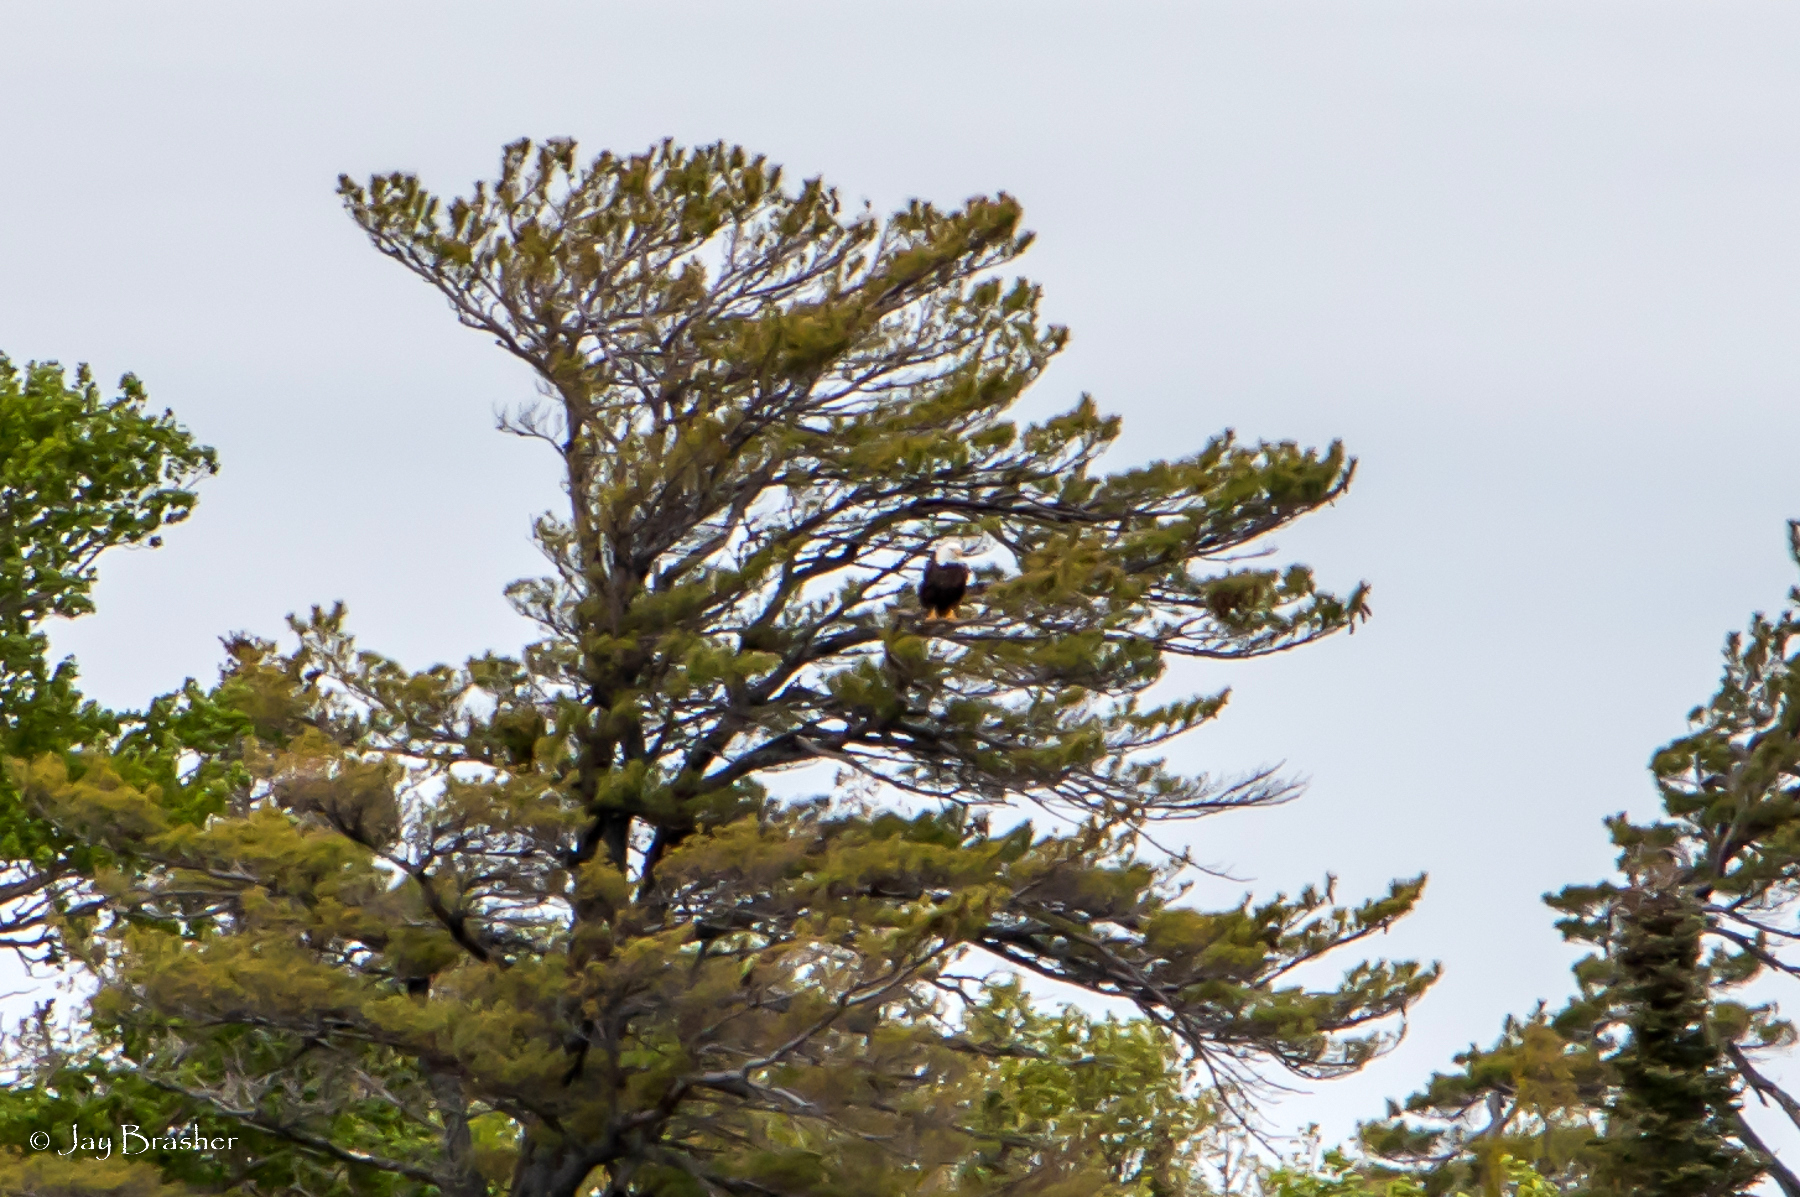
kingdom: Animalia
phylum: Chordata
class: Aves
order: Accipitriformes
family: Accipitridae
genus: Haliaeetus
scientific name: Haliaeetus leucocephalus
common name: Bald eagle
